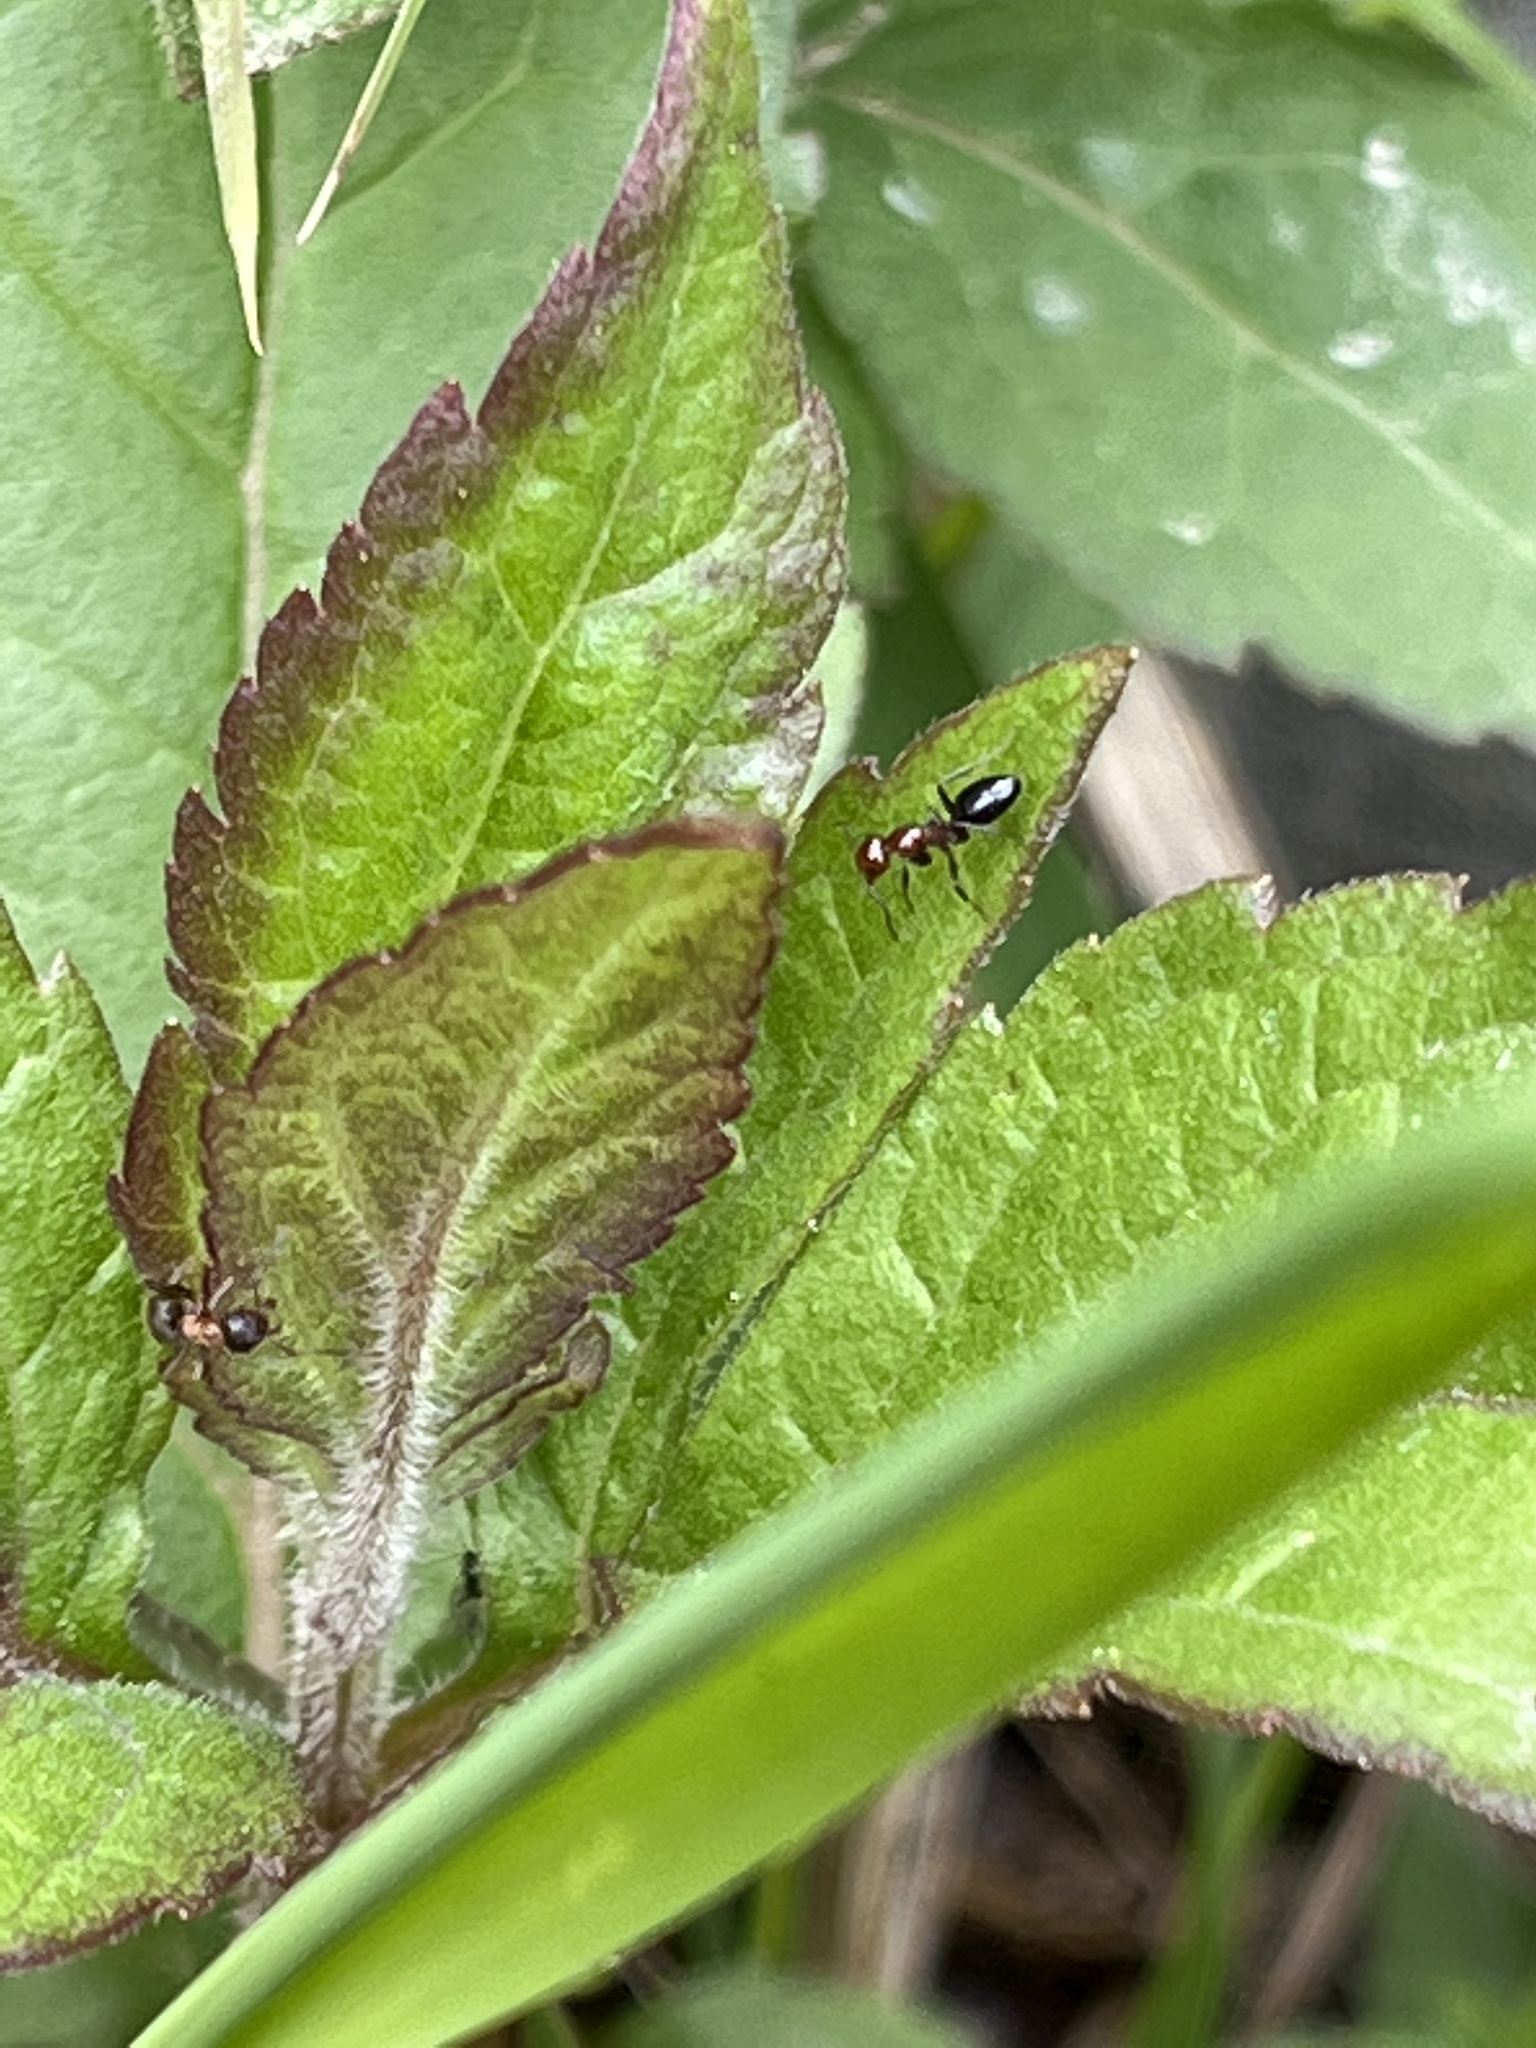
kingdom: Animalia
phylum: Arthropoda
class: Insecta
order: Hymenoptera
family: Formicidae
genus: Camponotus
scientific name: Camponotus lateralis
